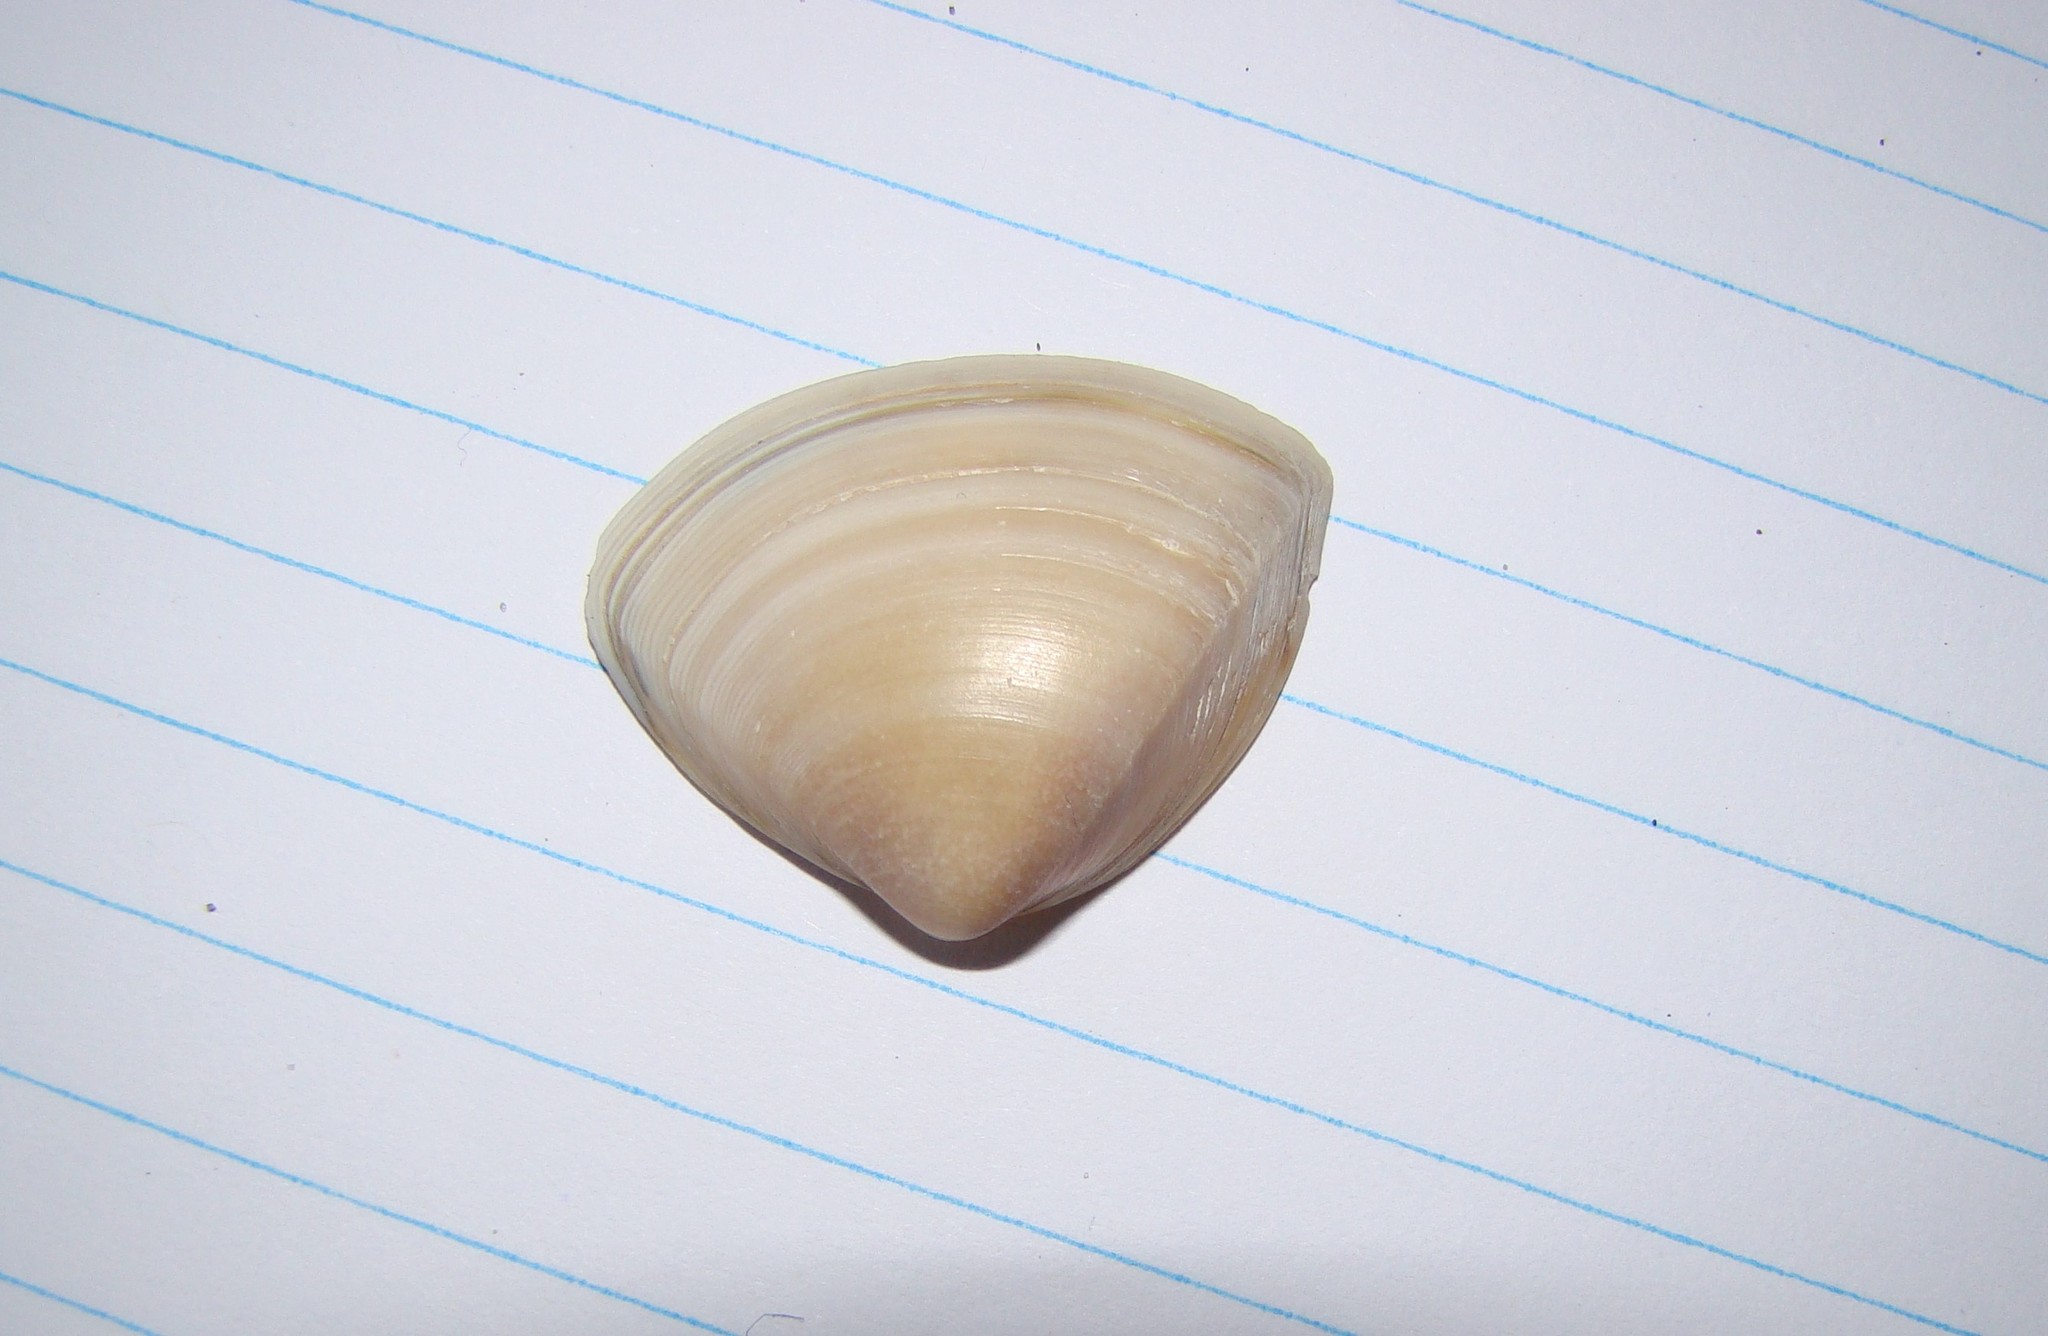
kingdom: Animalia
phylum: Mollusca
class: Bivalvia
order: Venerida
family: Mactridae
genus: Crassula
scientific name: Crassula aequilatera
